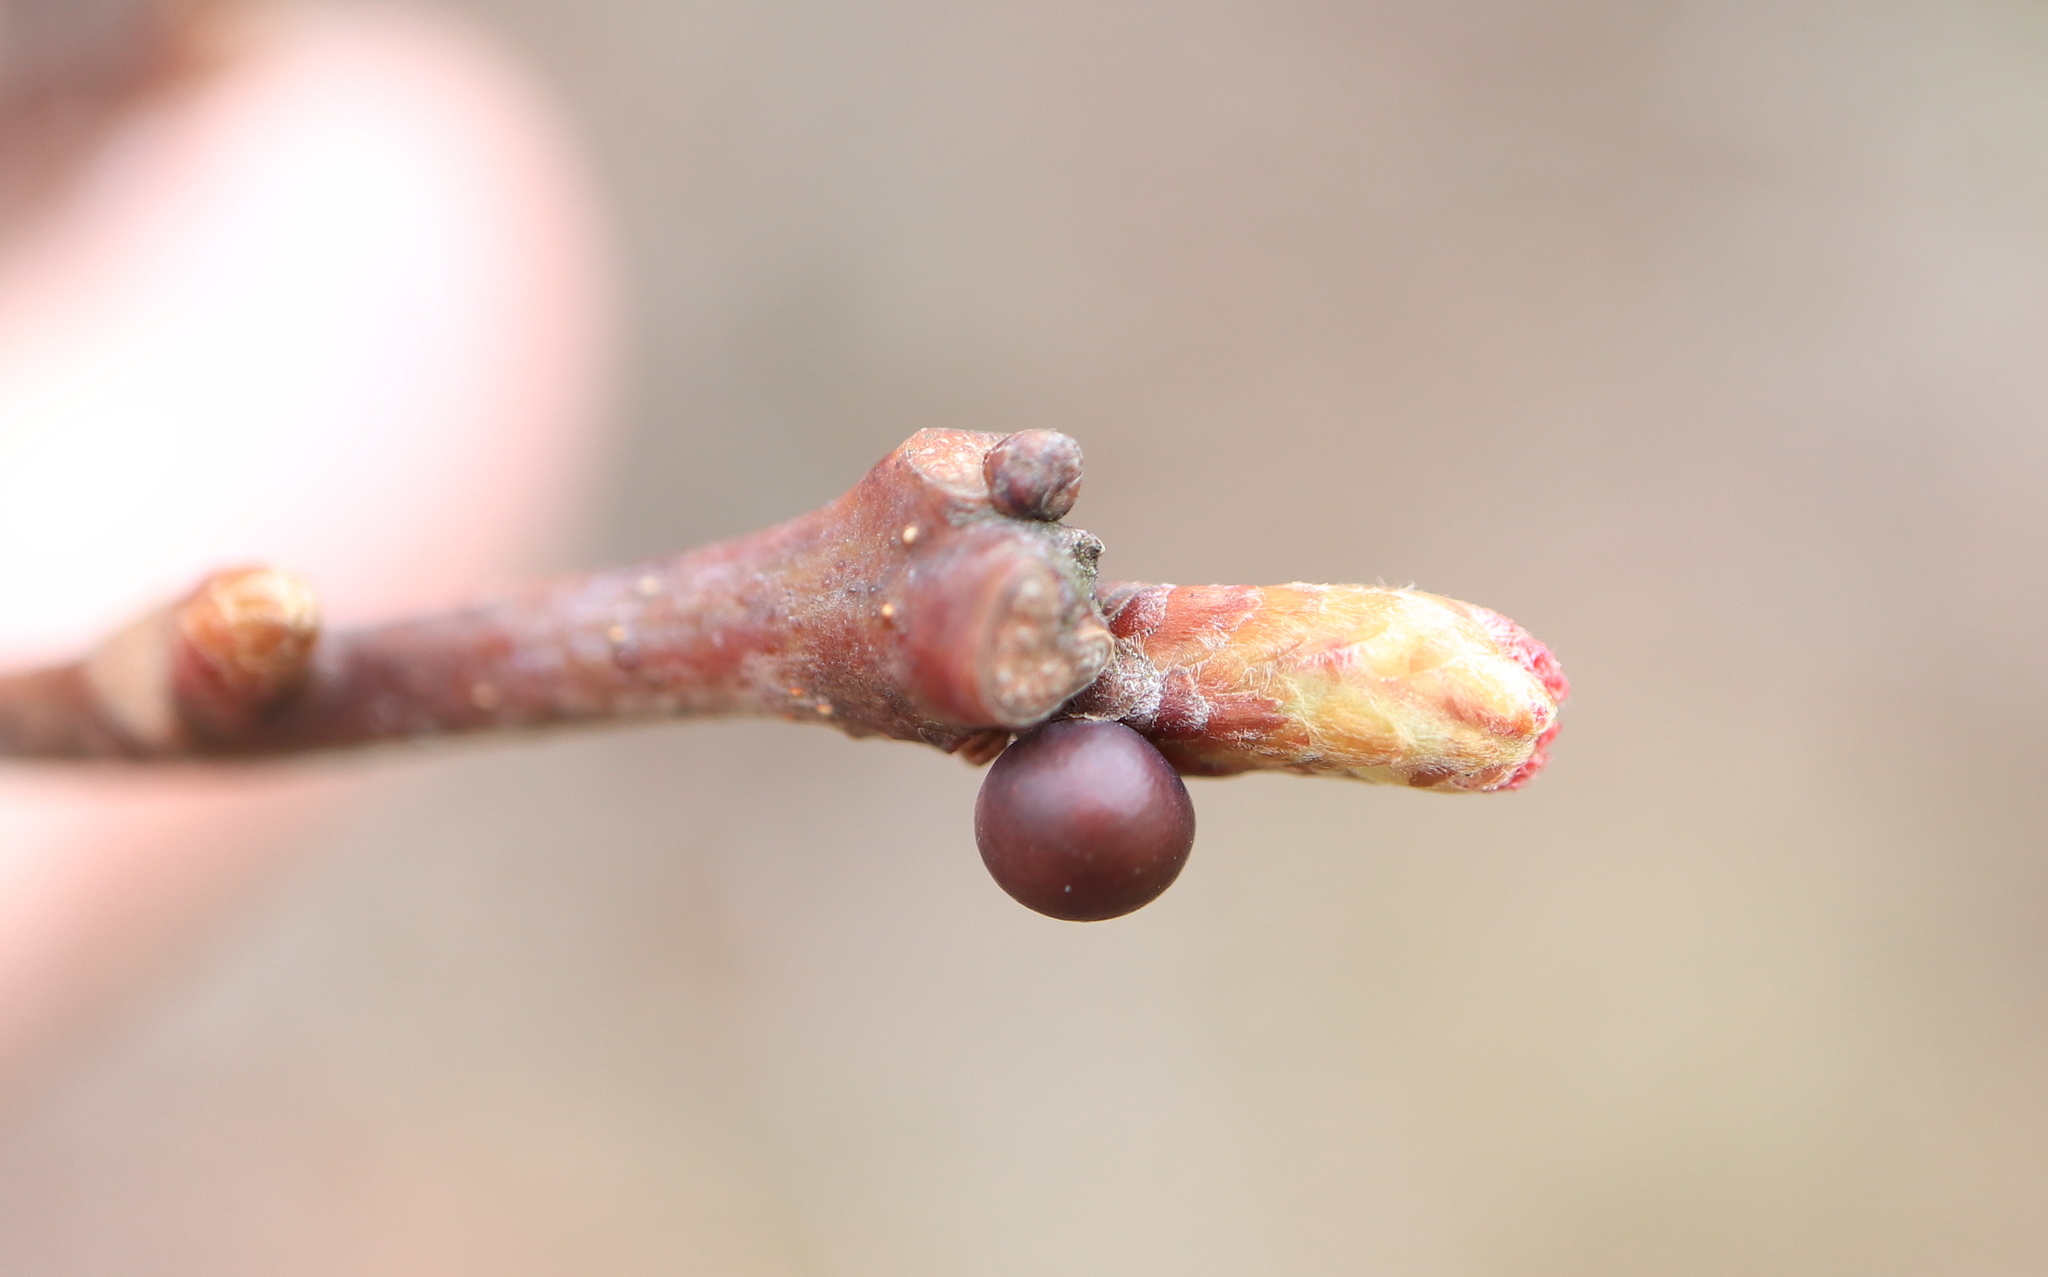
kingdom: Animalia
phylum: Arthropoda
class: Insecta
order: Hymenoptera
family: Cynipidae
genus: Neuroterus
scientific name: Neuroterus
